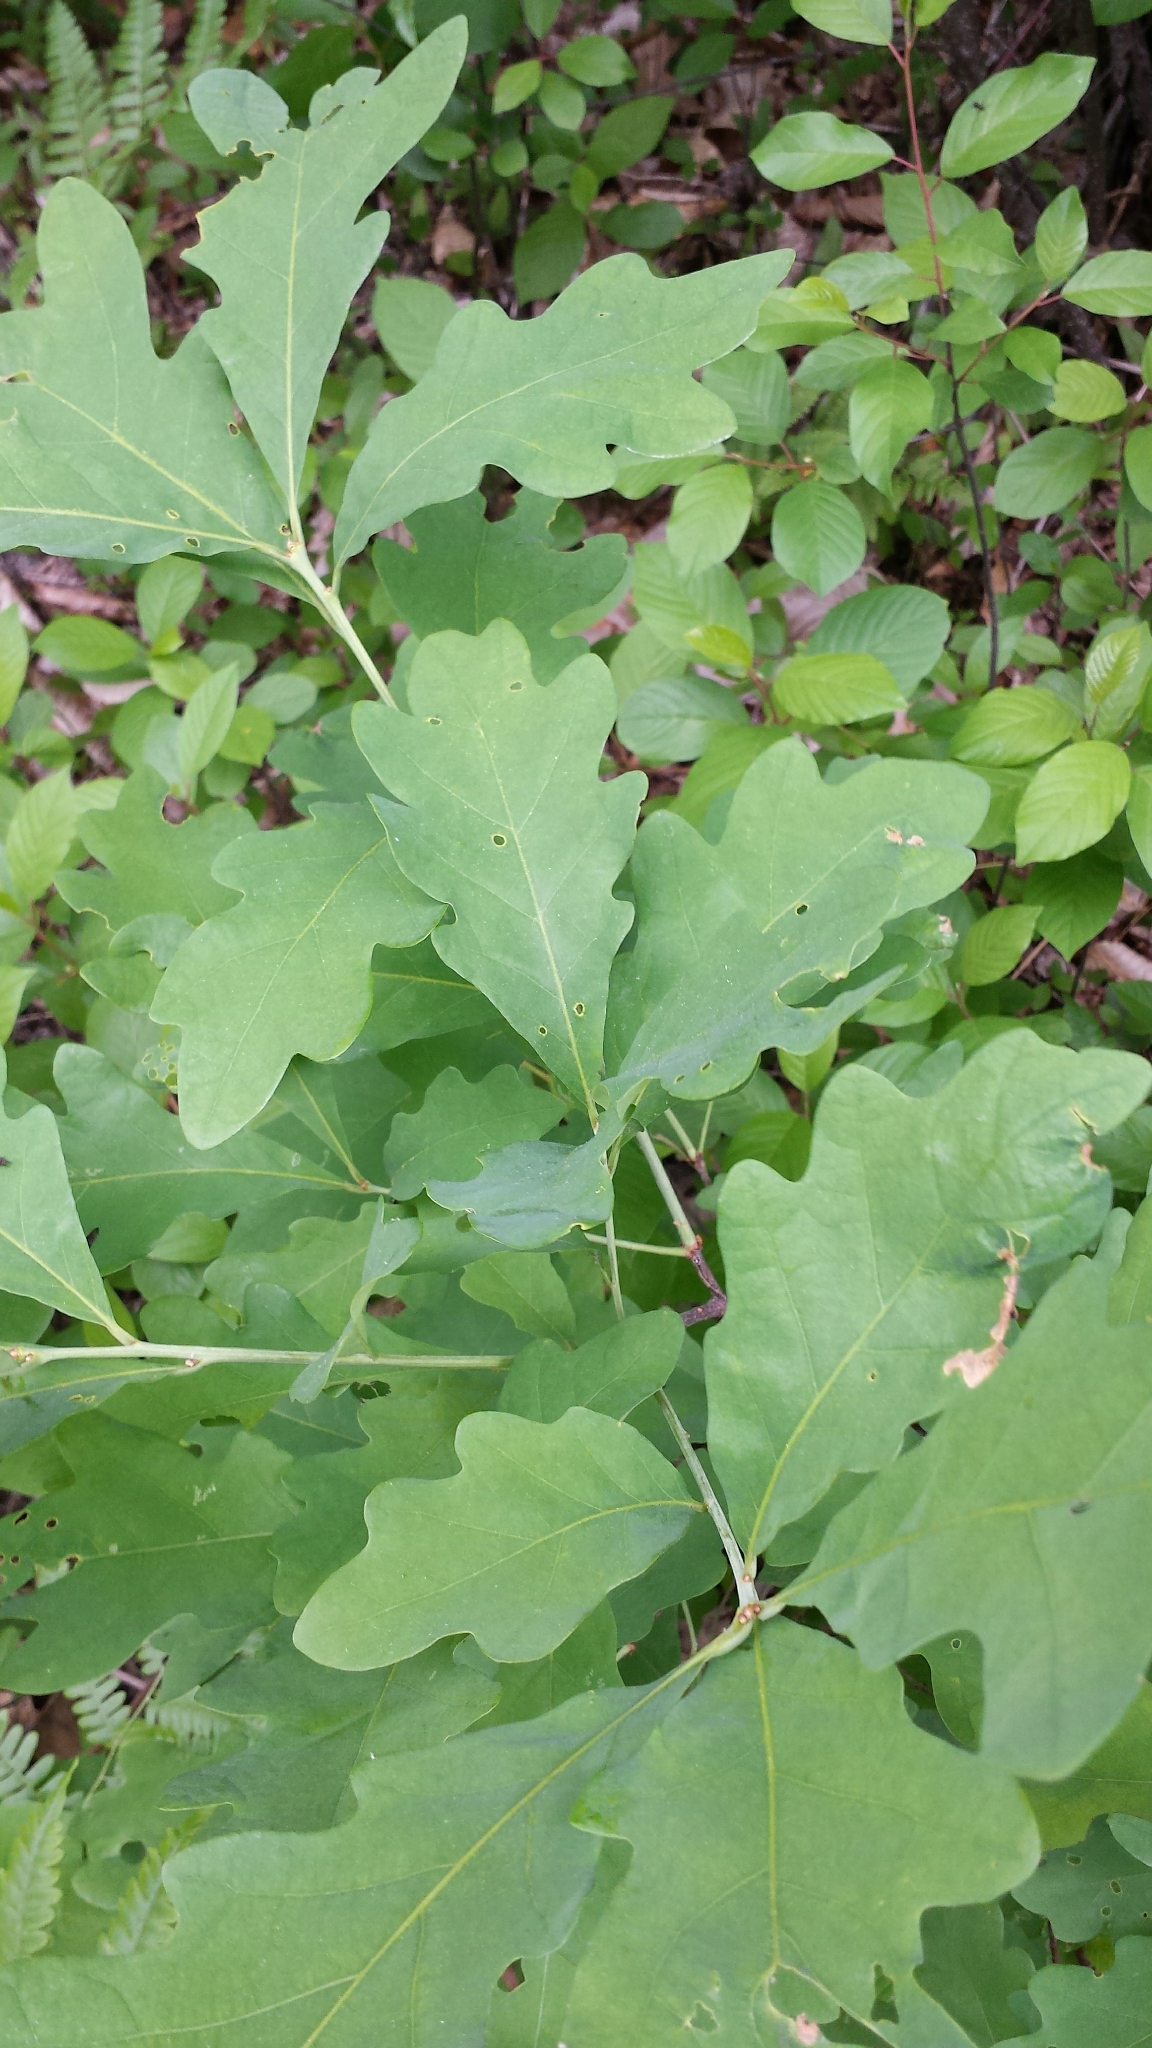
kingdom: Plantae
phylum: Tracheophyta
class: Magnoliopsida
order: Fagales
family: Fagaceae
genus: Quercus
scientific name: Quercus alba
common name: White oak
